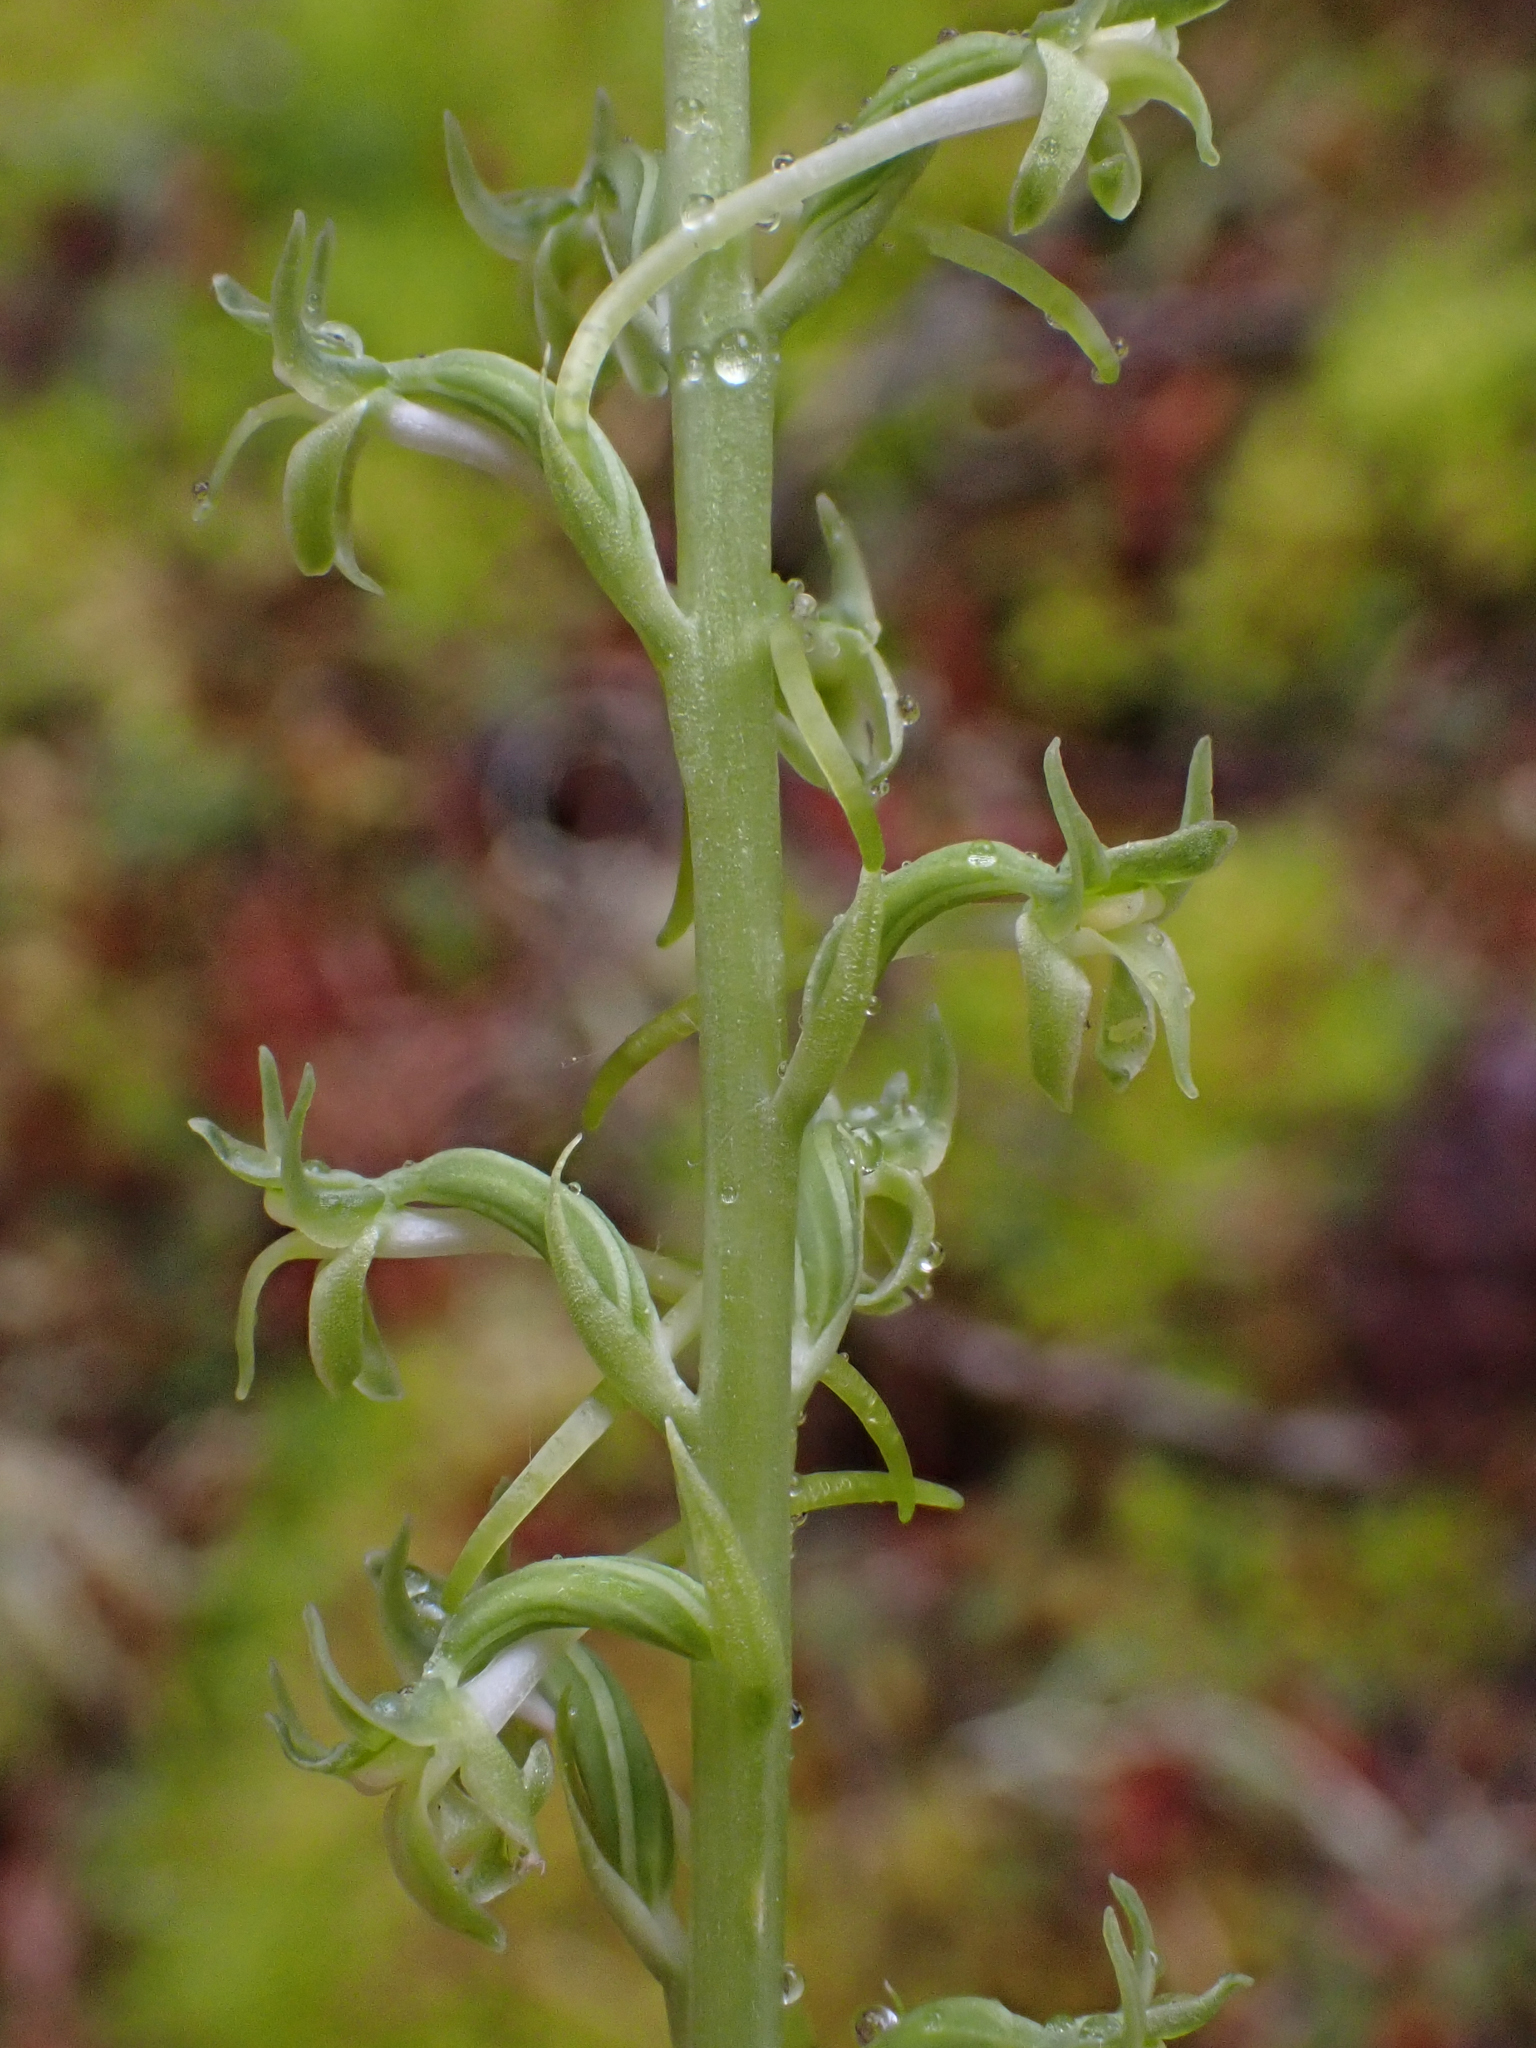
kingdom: Plantae
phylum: Tracheophyta
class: Liliopsida
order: Asparagales
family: Orchidaceae
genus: Platanthera
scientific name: Platanthera elongata
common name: Dense-flowered rein orchid
